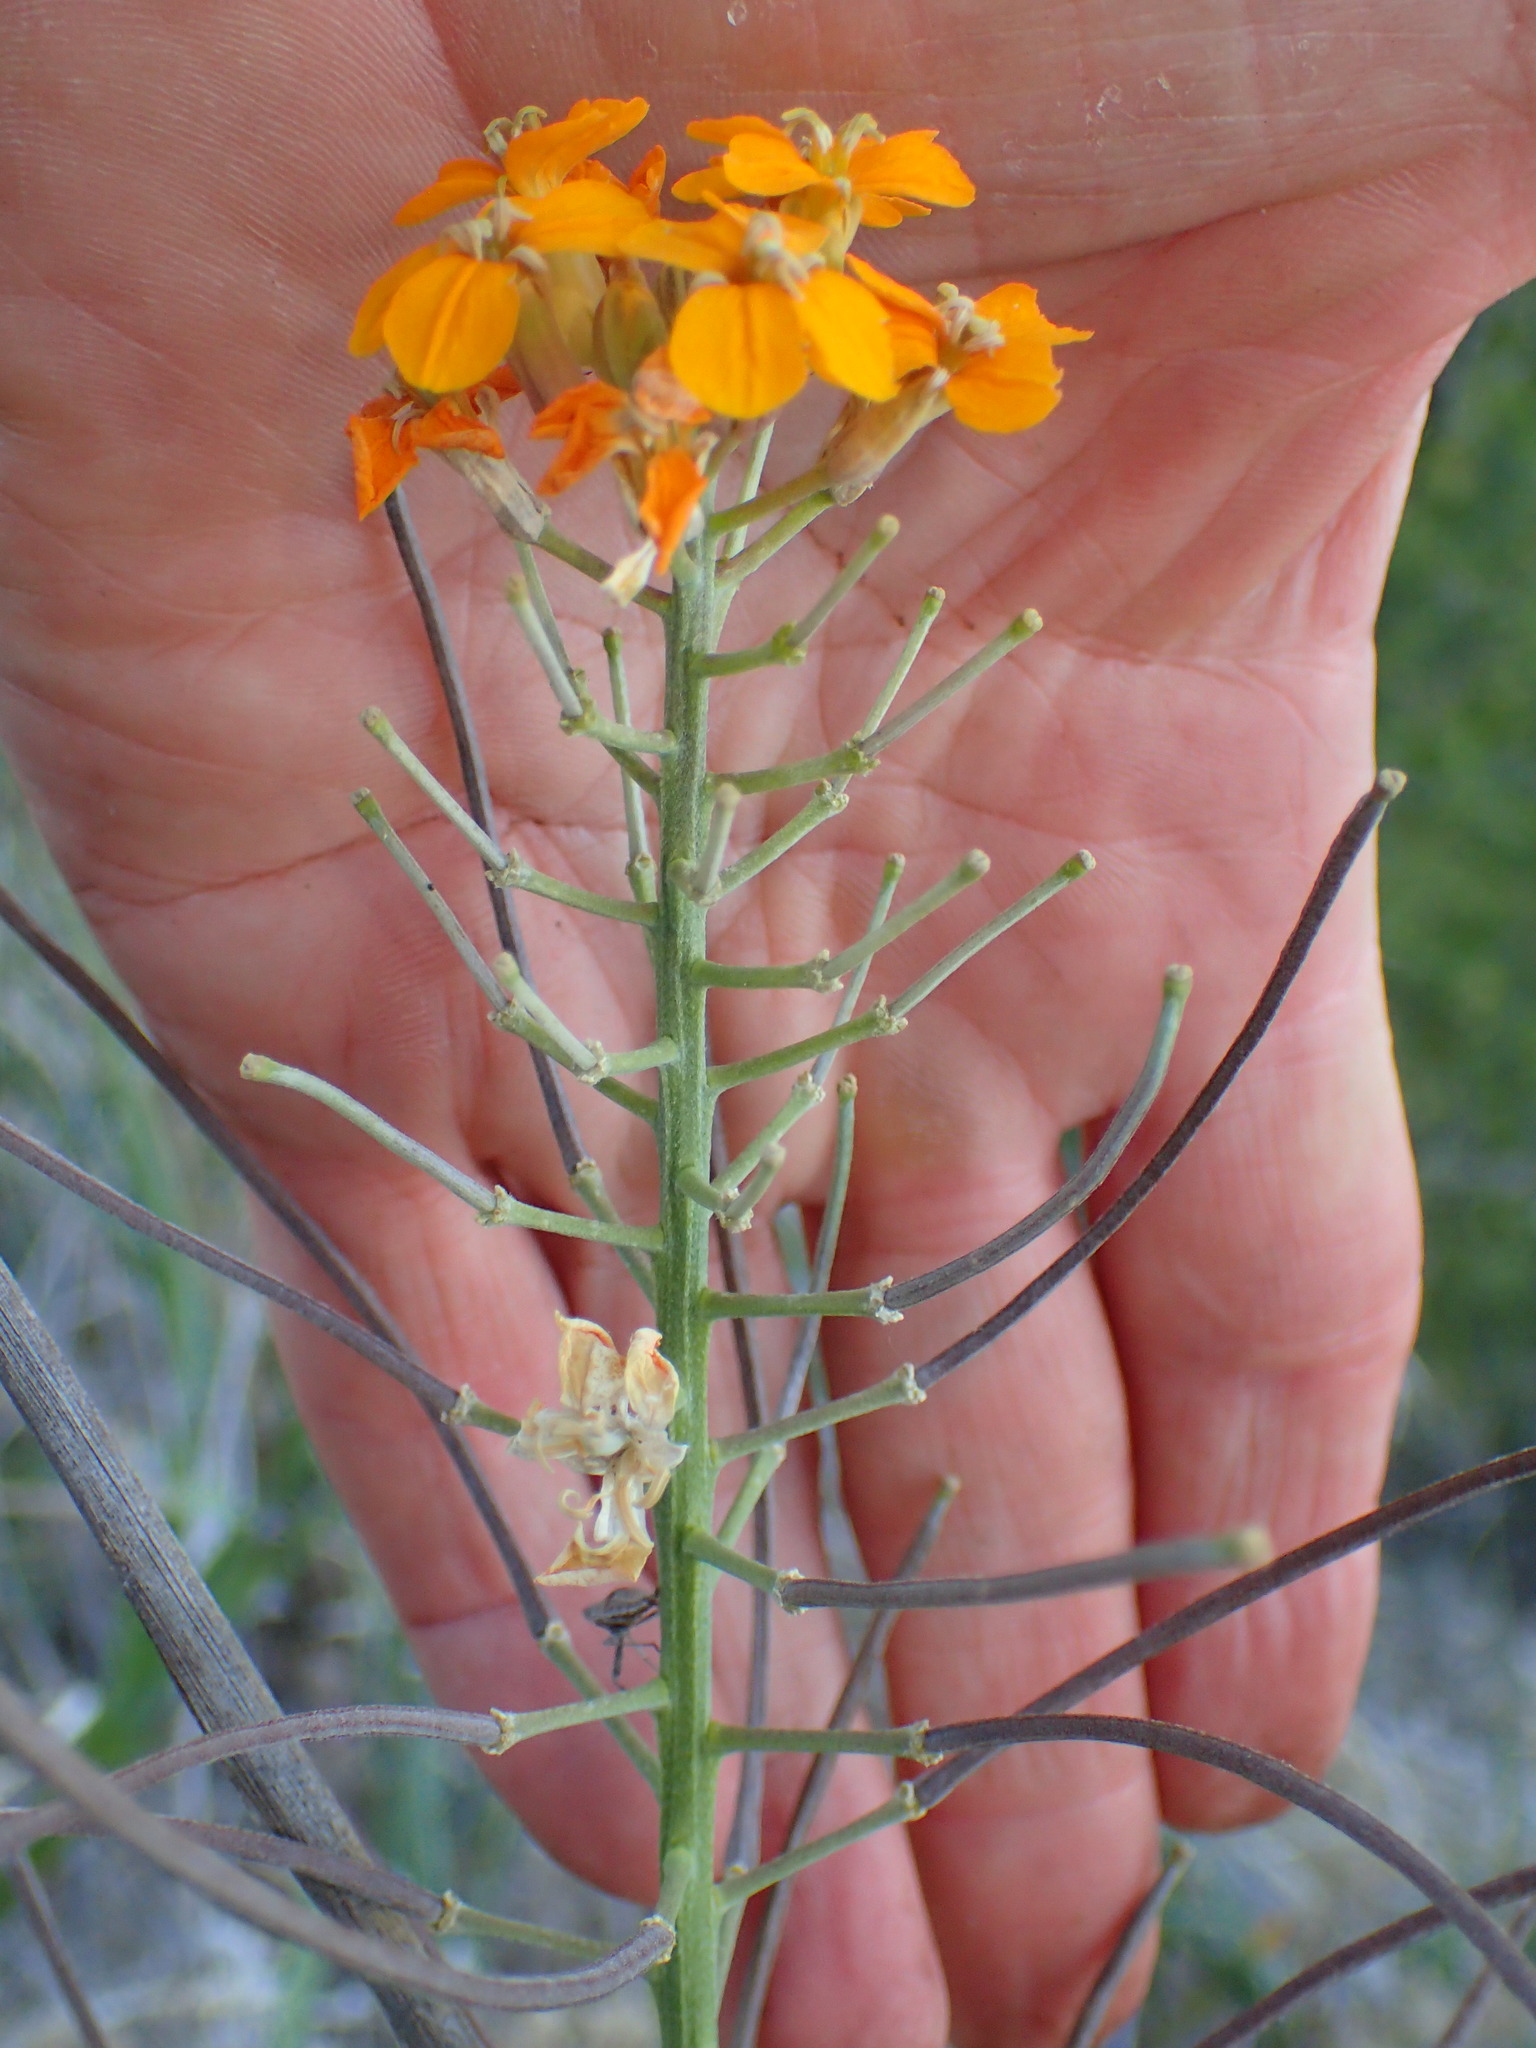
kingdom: Plantae
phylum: Tracheophyta
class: Magnoliopsida
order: Brassicales
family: Brassicaceae
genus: Erysimum
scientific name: Erysimum capitatum
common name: Western wallflower
